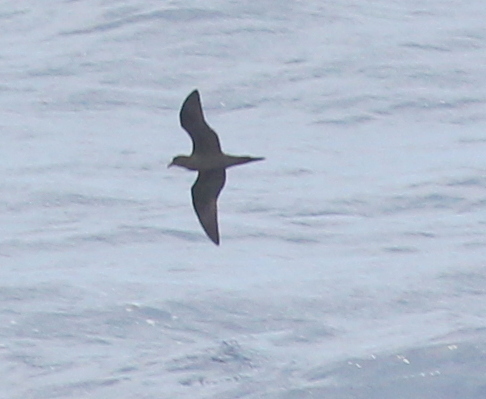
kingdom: Animalia
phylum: Chordata
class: Aves
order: Procellariiformes
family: Procellariidae
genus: Bulweria
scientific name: Bulweria bulwerii
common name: Bulwer's petrel
